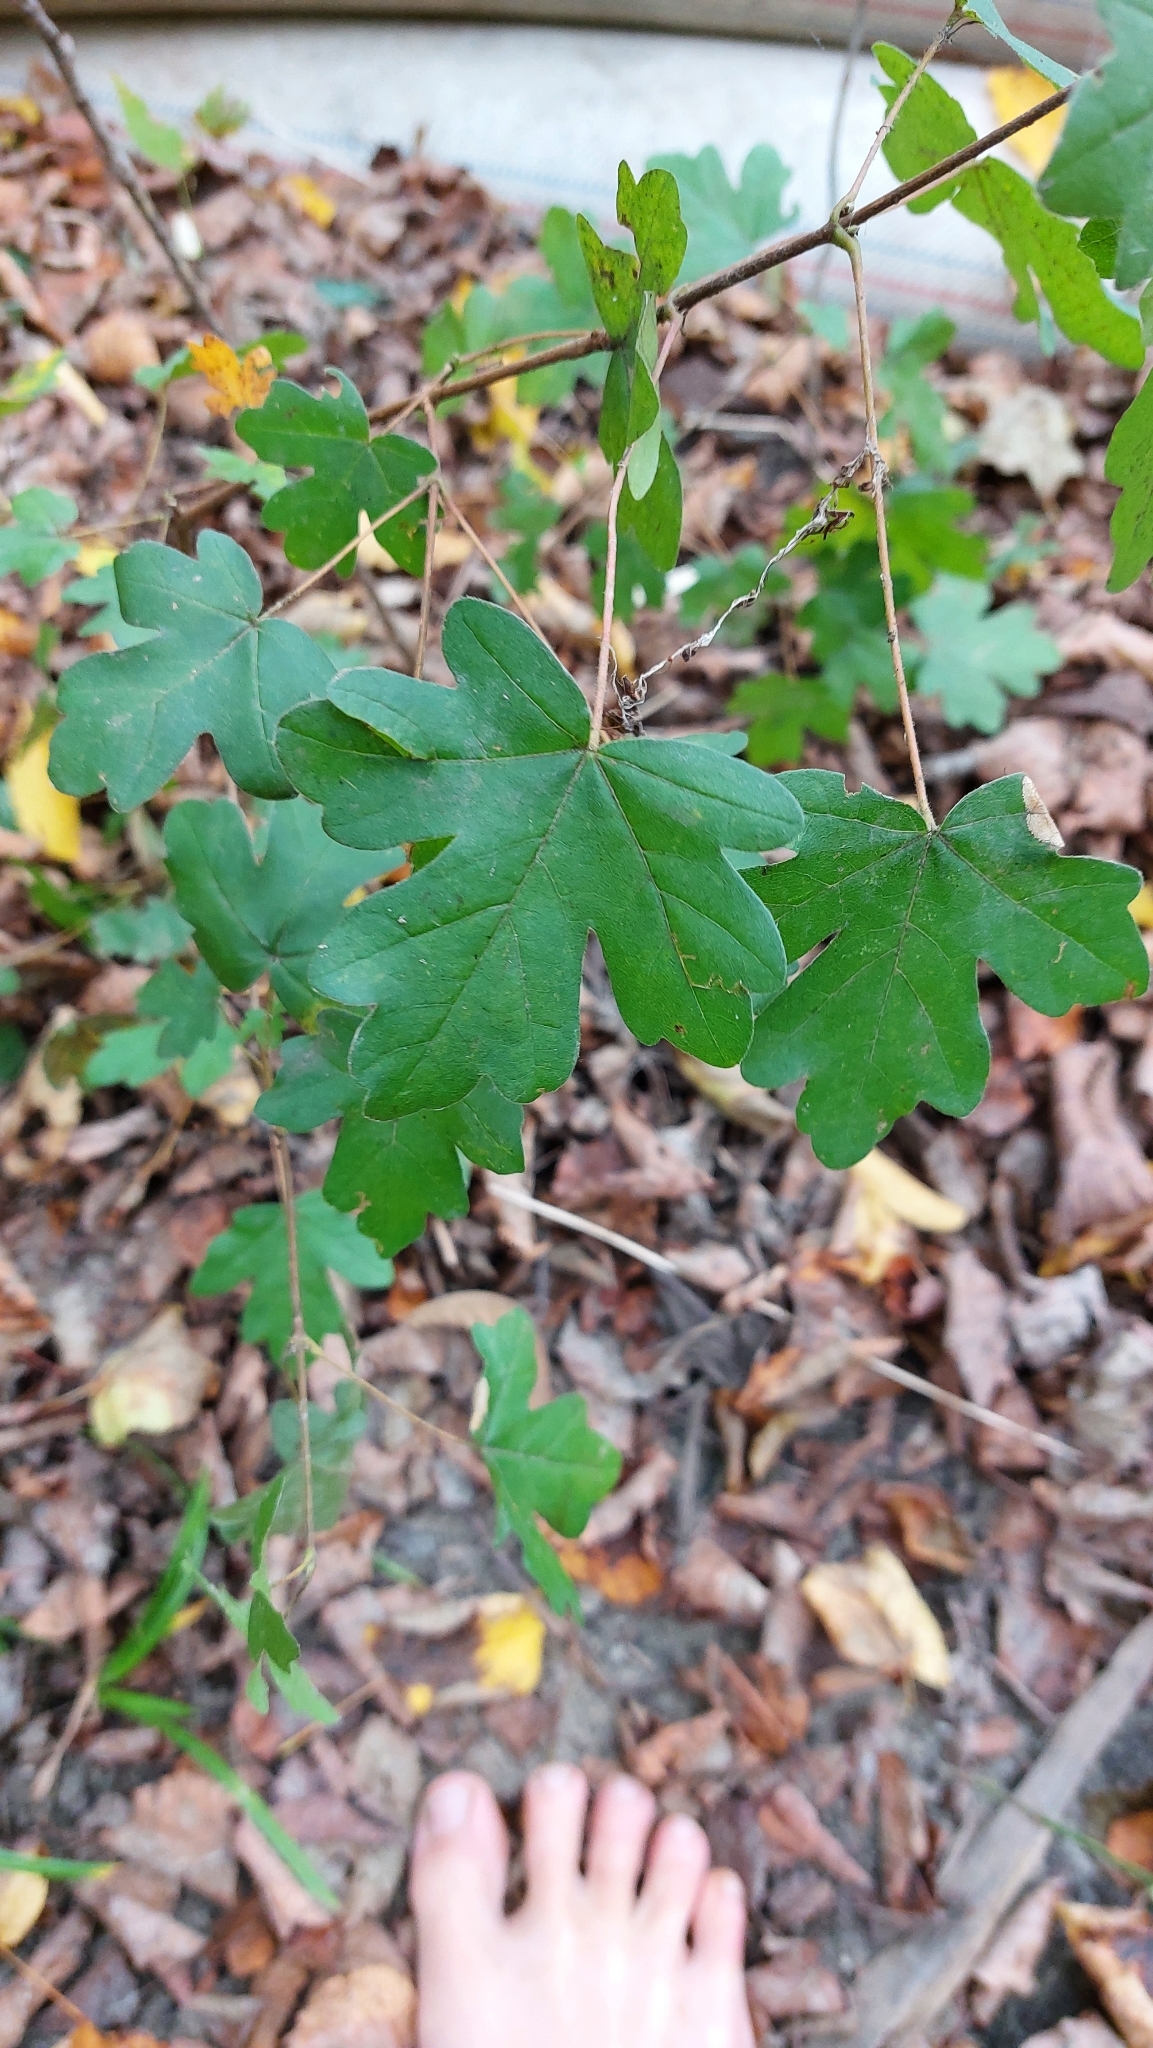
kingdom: Plantae
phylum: Tracheophyta
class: Magnoliopsida
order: Sapindales
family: Sapindaceae
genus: Acer
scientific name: Acer campestre
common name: Field maple
